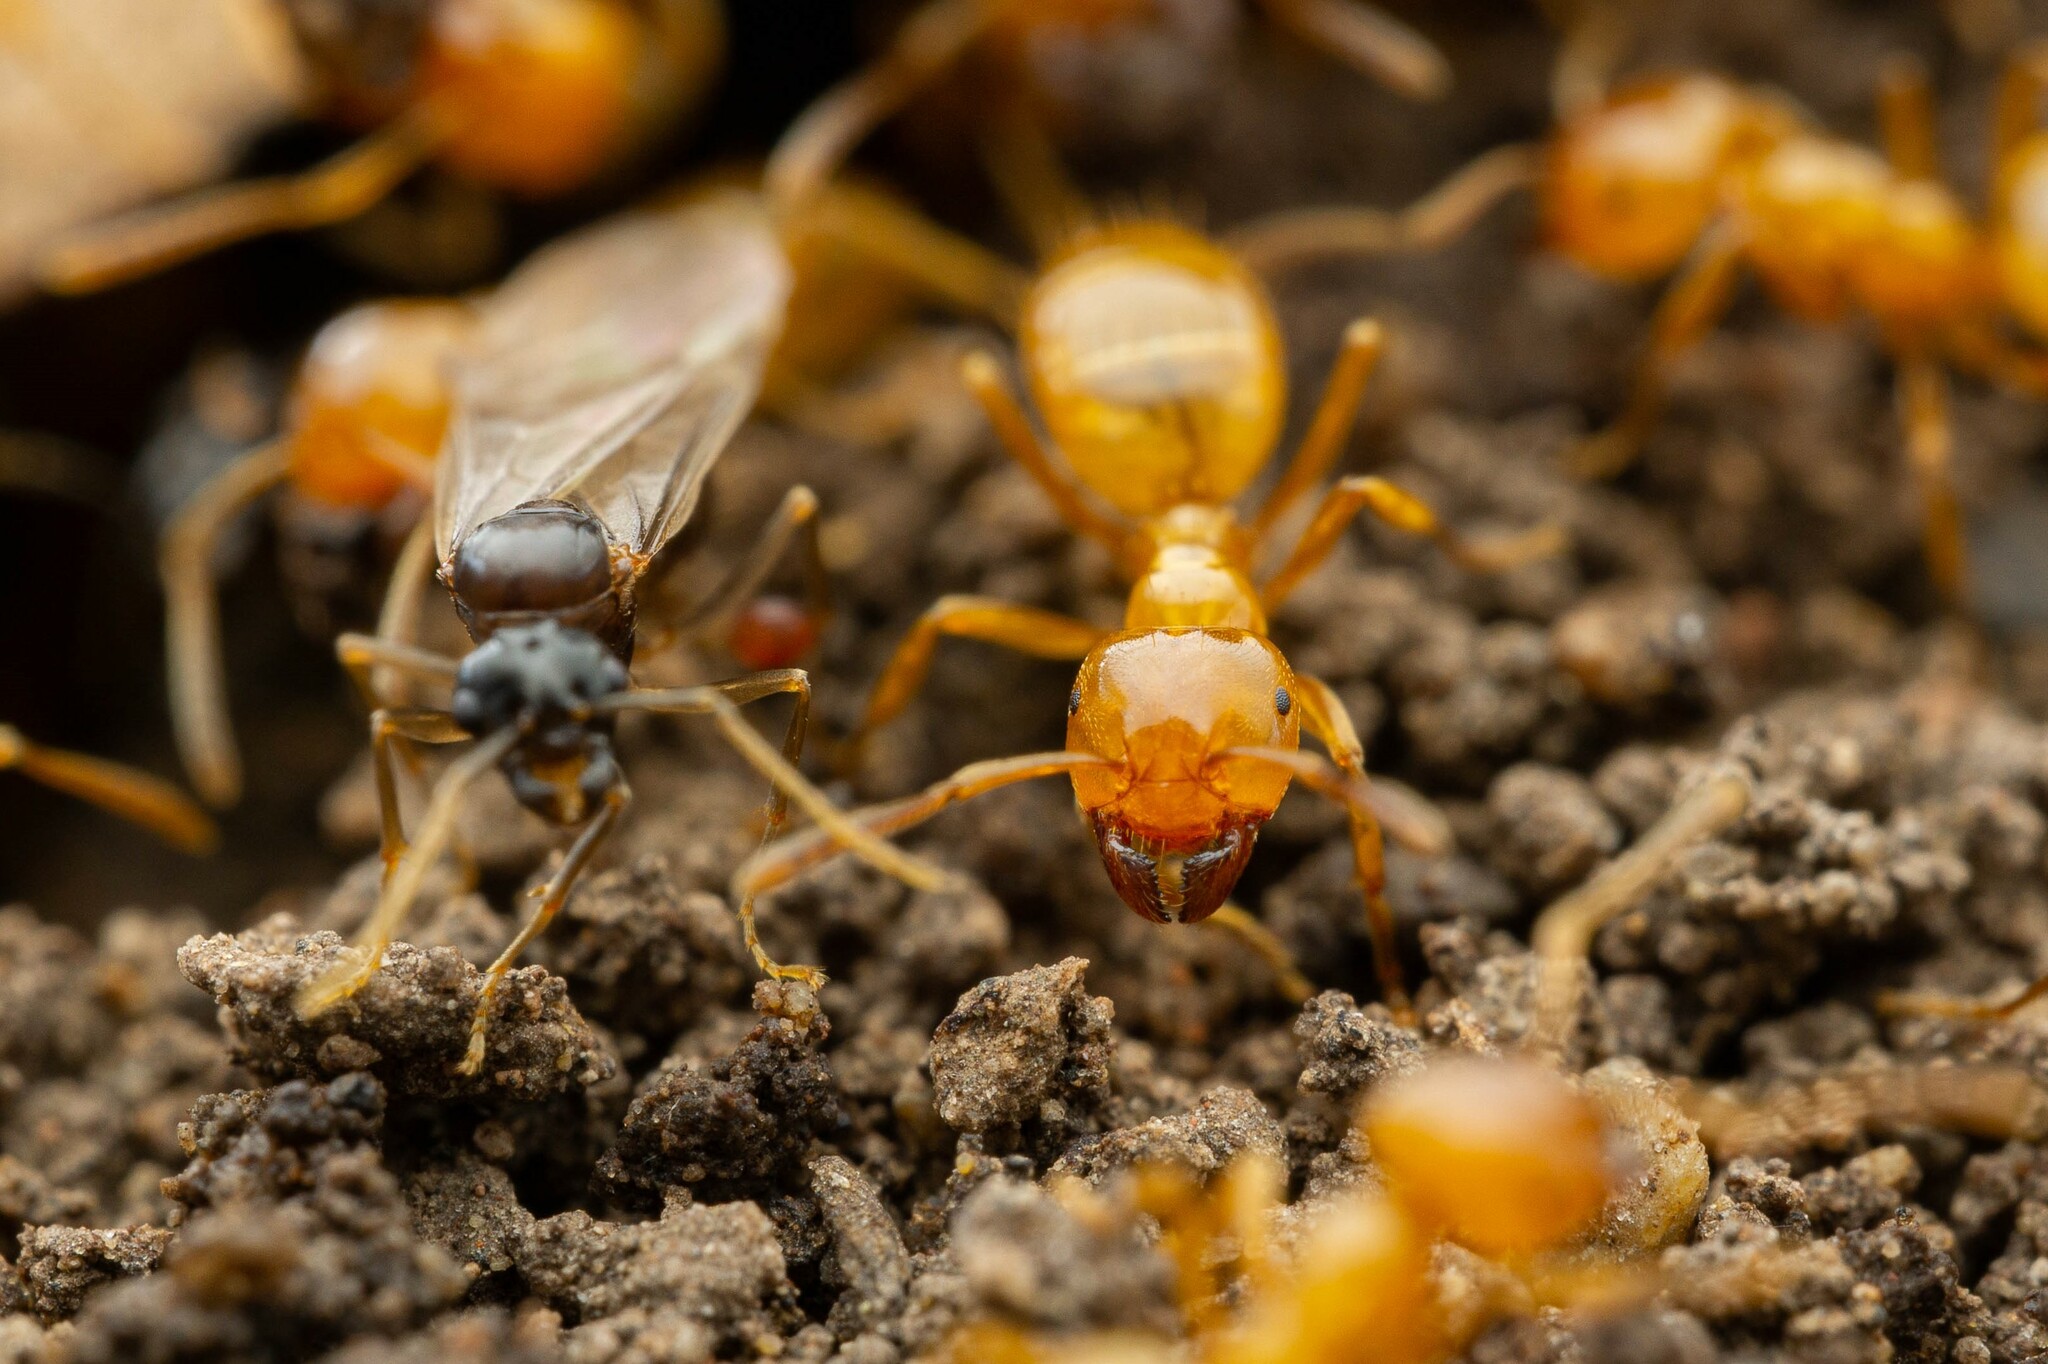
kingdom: Animalia
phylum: Arthropoda
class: Insecta
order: Hymenoptera
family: Formicidae
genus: Lasius
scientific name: Lasius arizonicus
